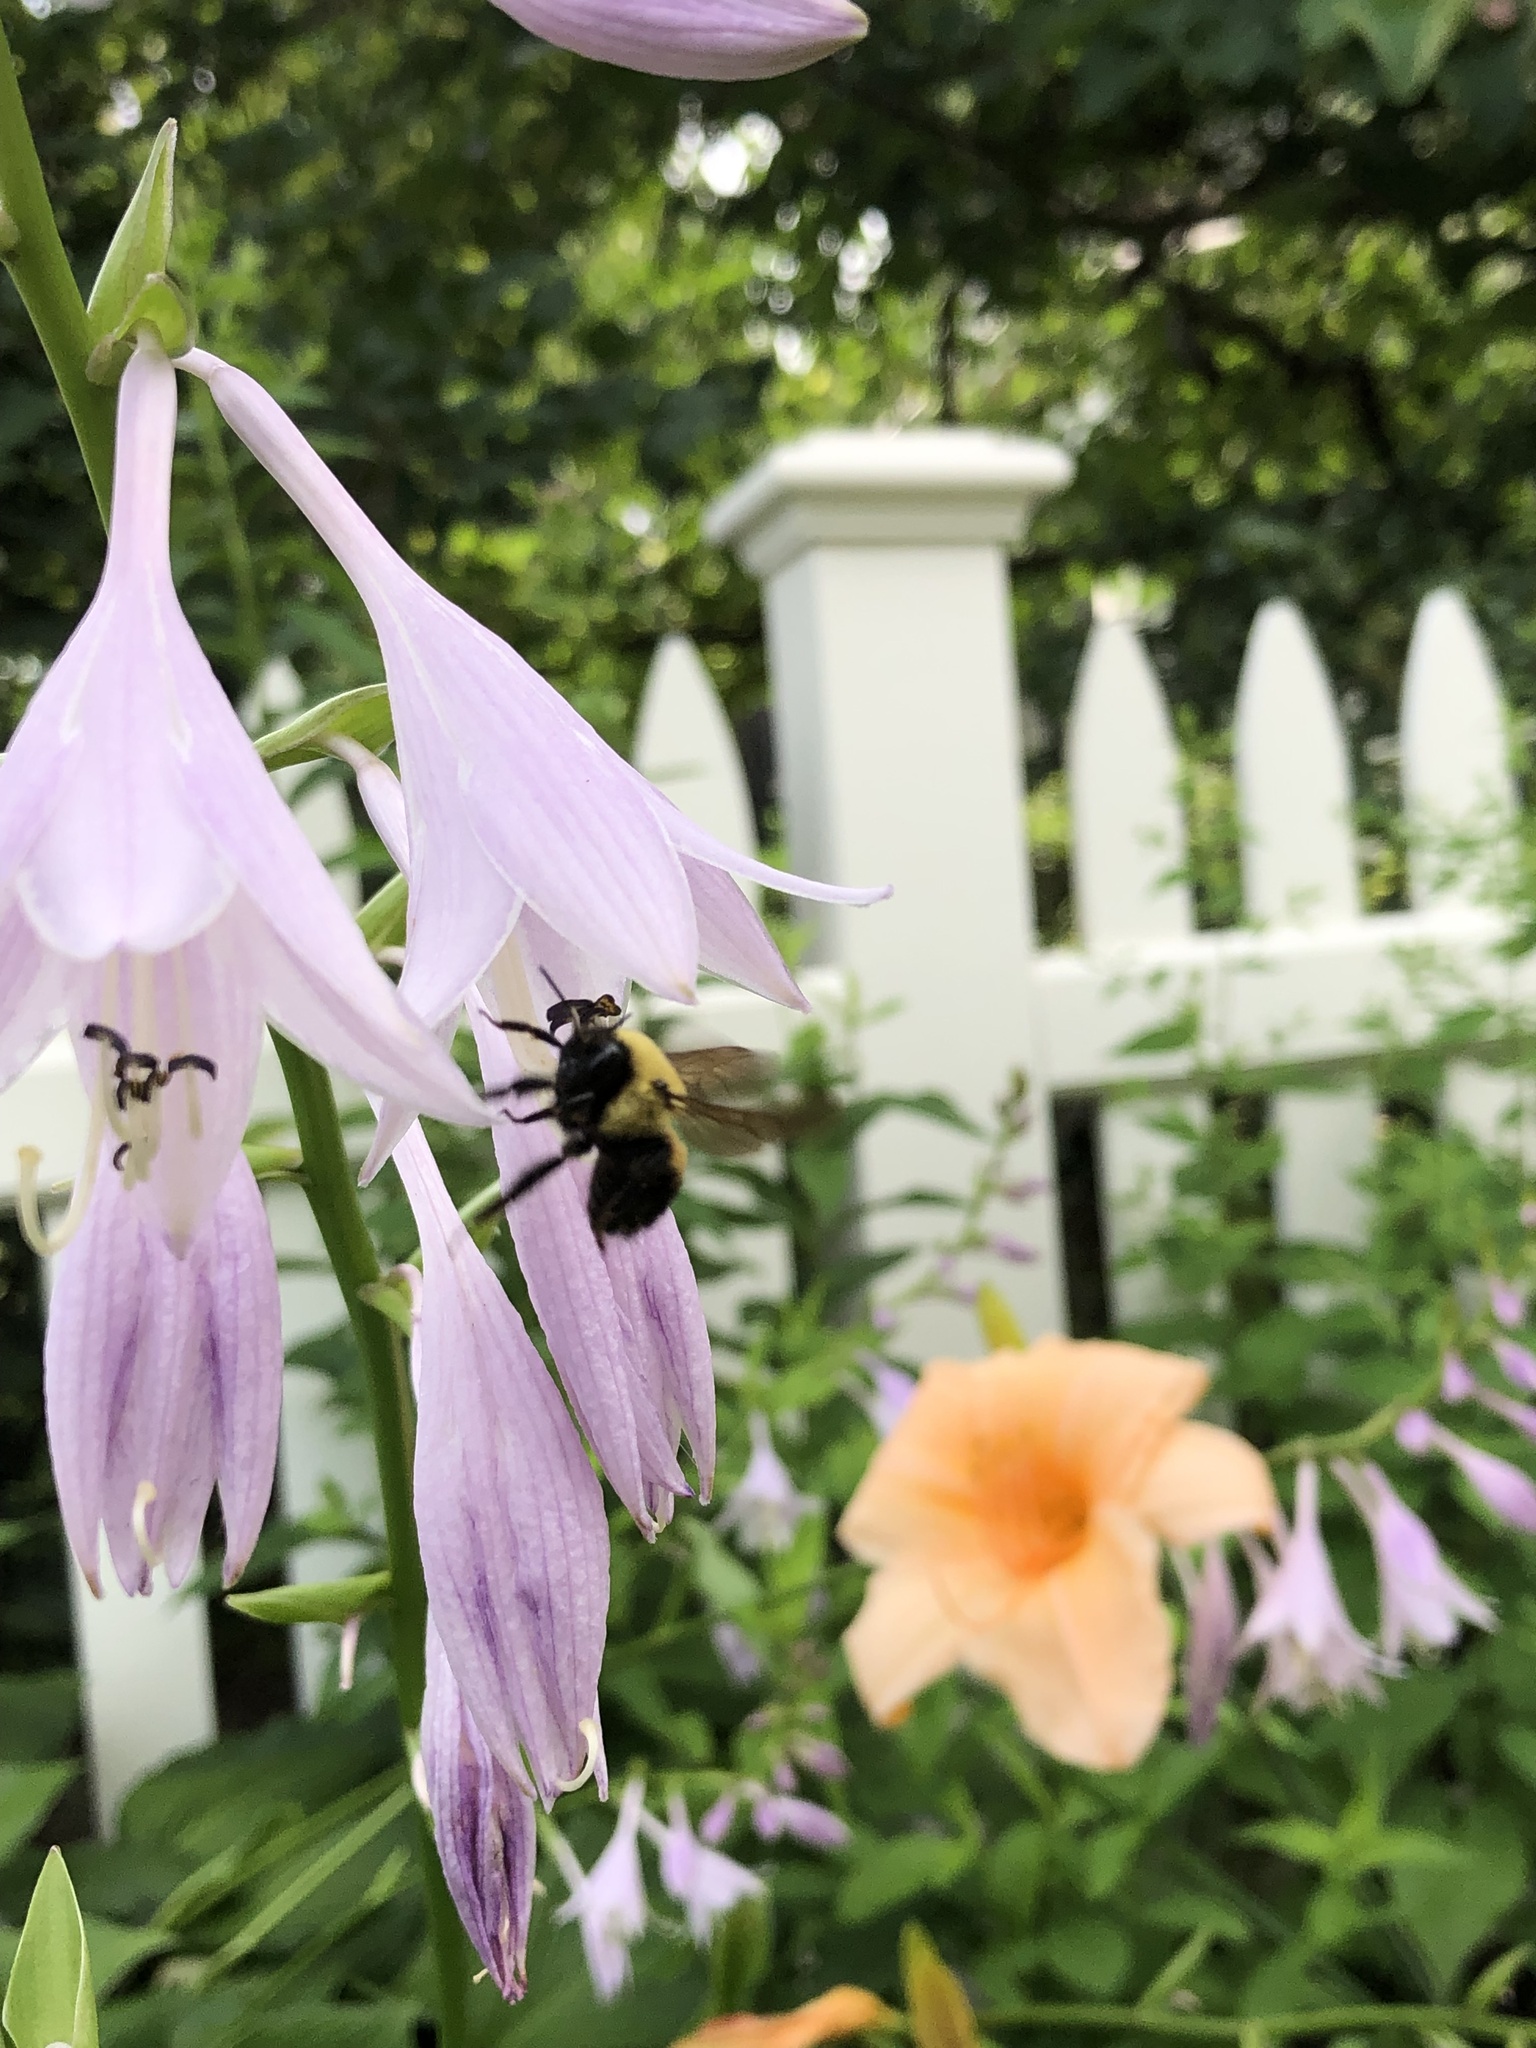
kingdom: Animalia
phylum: Arthropoda
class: Insecta
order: Hymenoptera
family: Apidae
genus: Bombus
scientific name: Bombus griseocollis
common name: Brown-belted bumble bee
